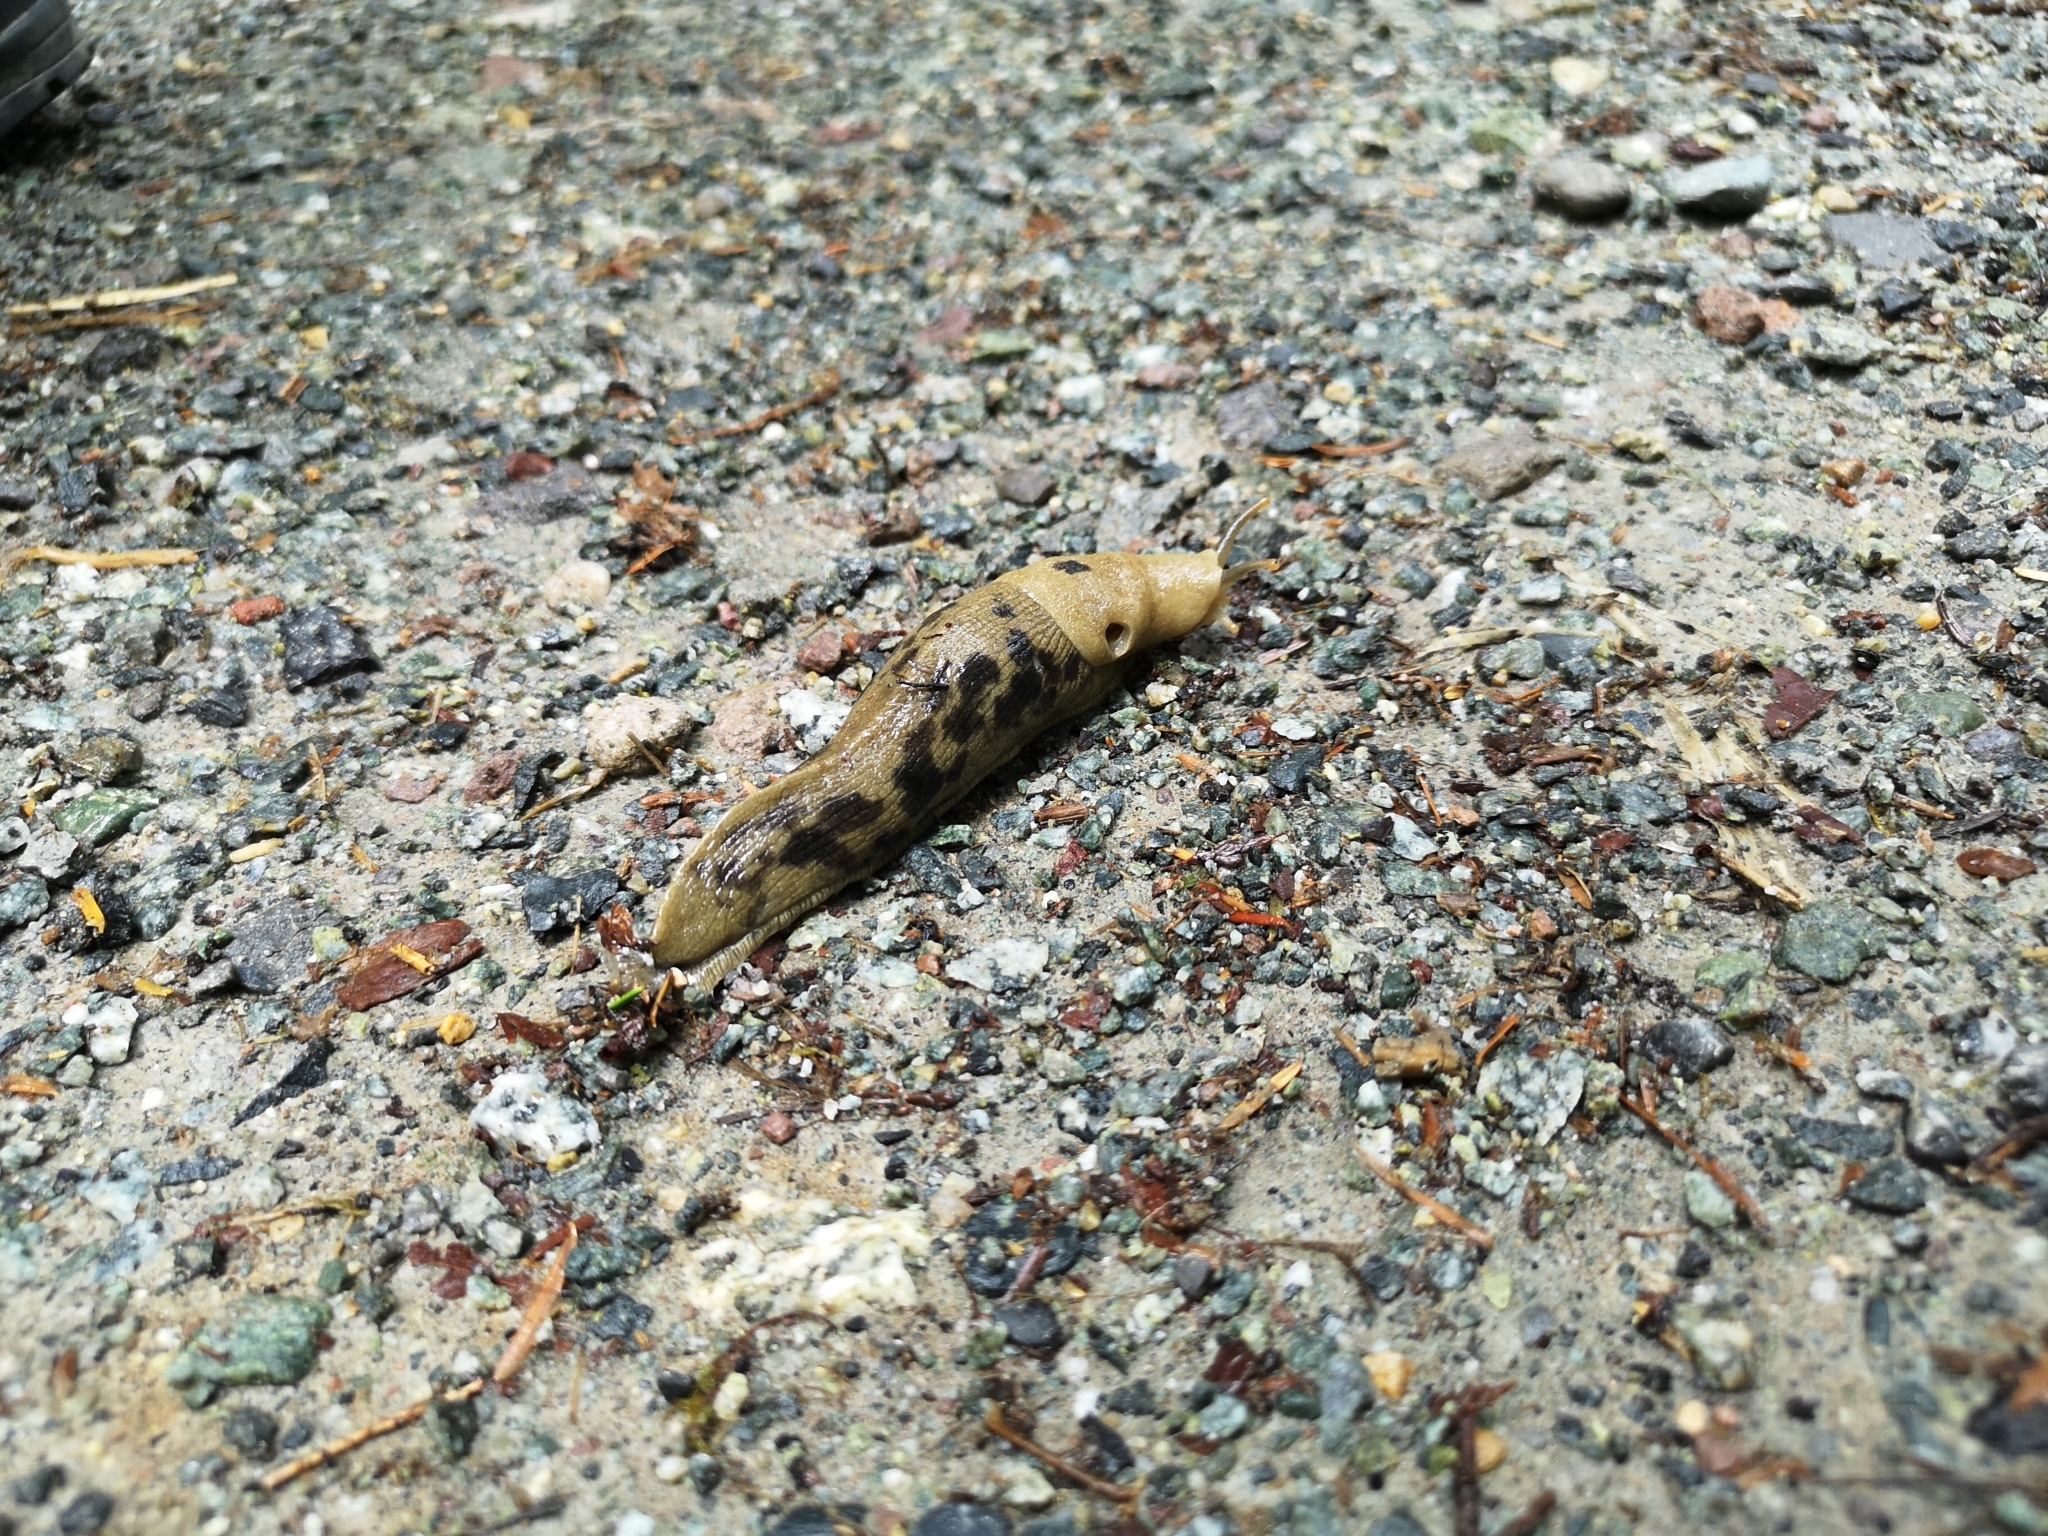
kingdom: Animalia
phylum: Mollusca
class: Gastropoda
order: Stylommatophora
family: Ariolimacidae
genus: Ariolimax
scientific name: Ariolimax columbianus
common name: Pacific banana slug
